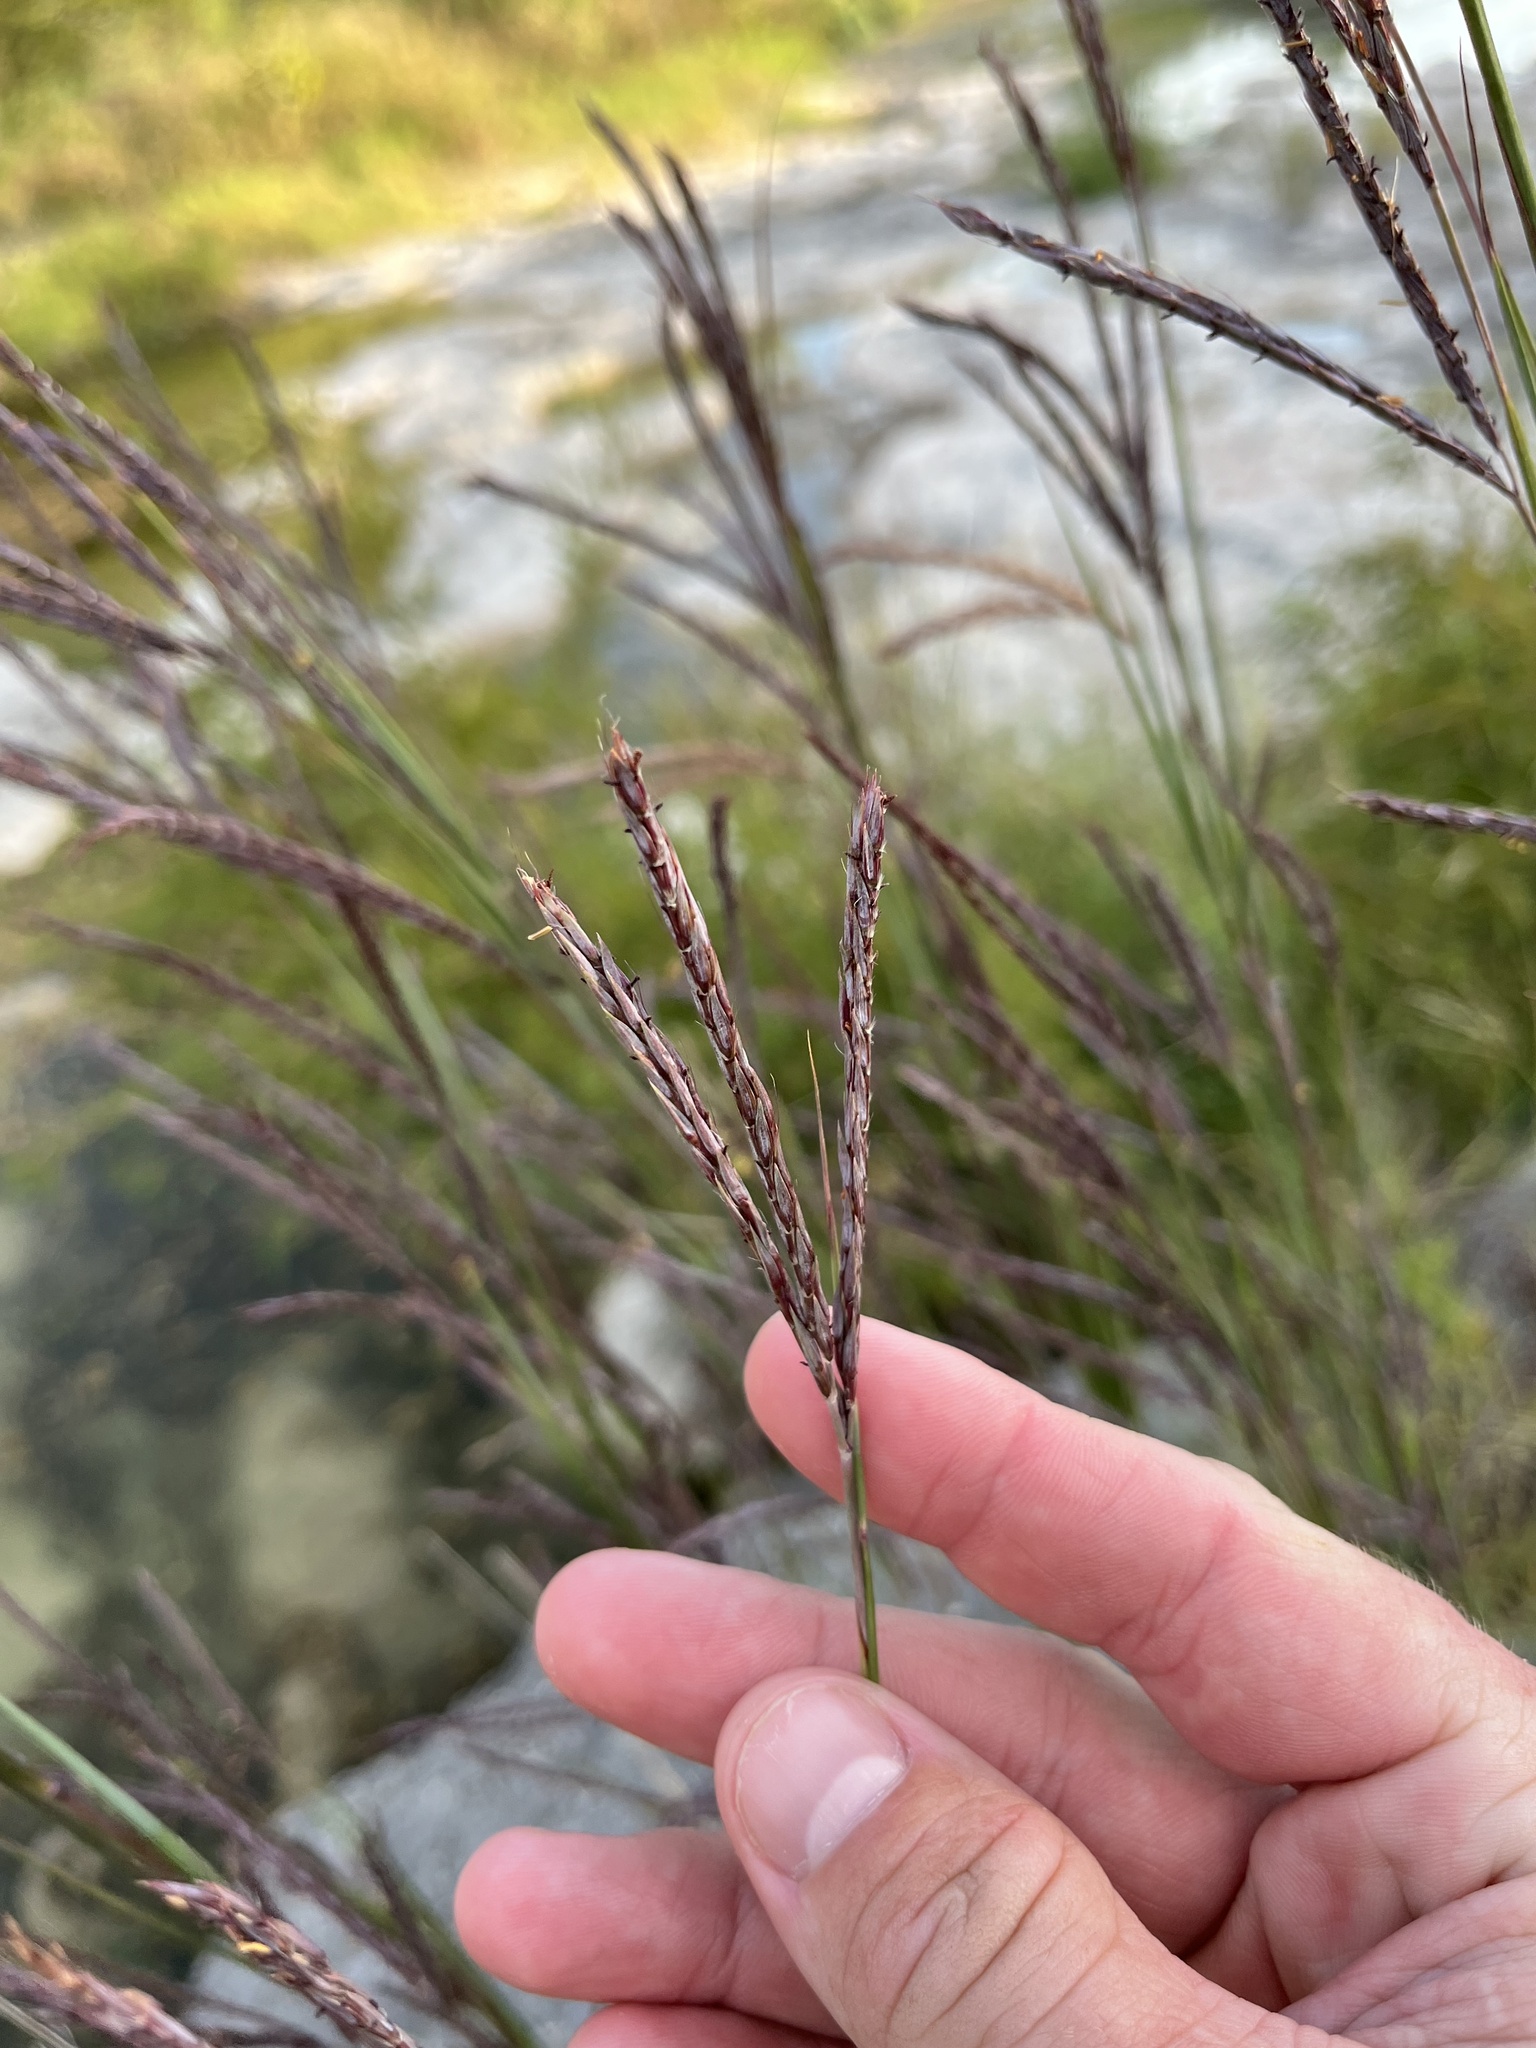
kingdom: Plantae
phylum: Tracheophyta
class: Liliopsida
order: Poales
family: Poaceae
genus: Andropogon
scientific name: Andropogon gerardi
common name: Big bluestem
